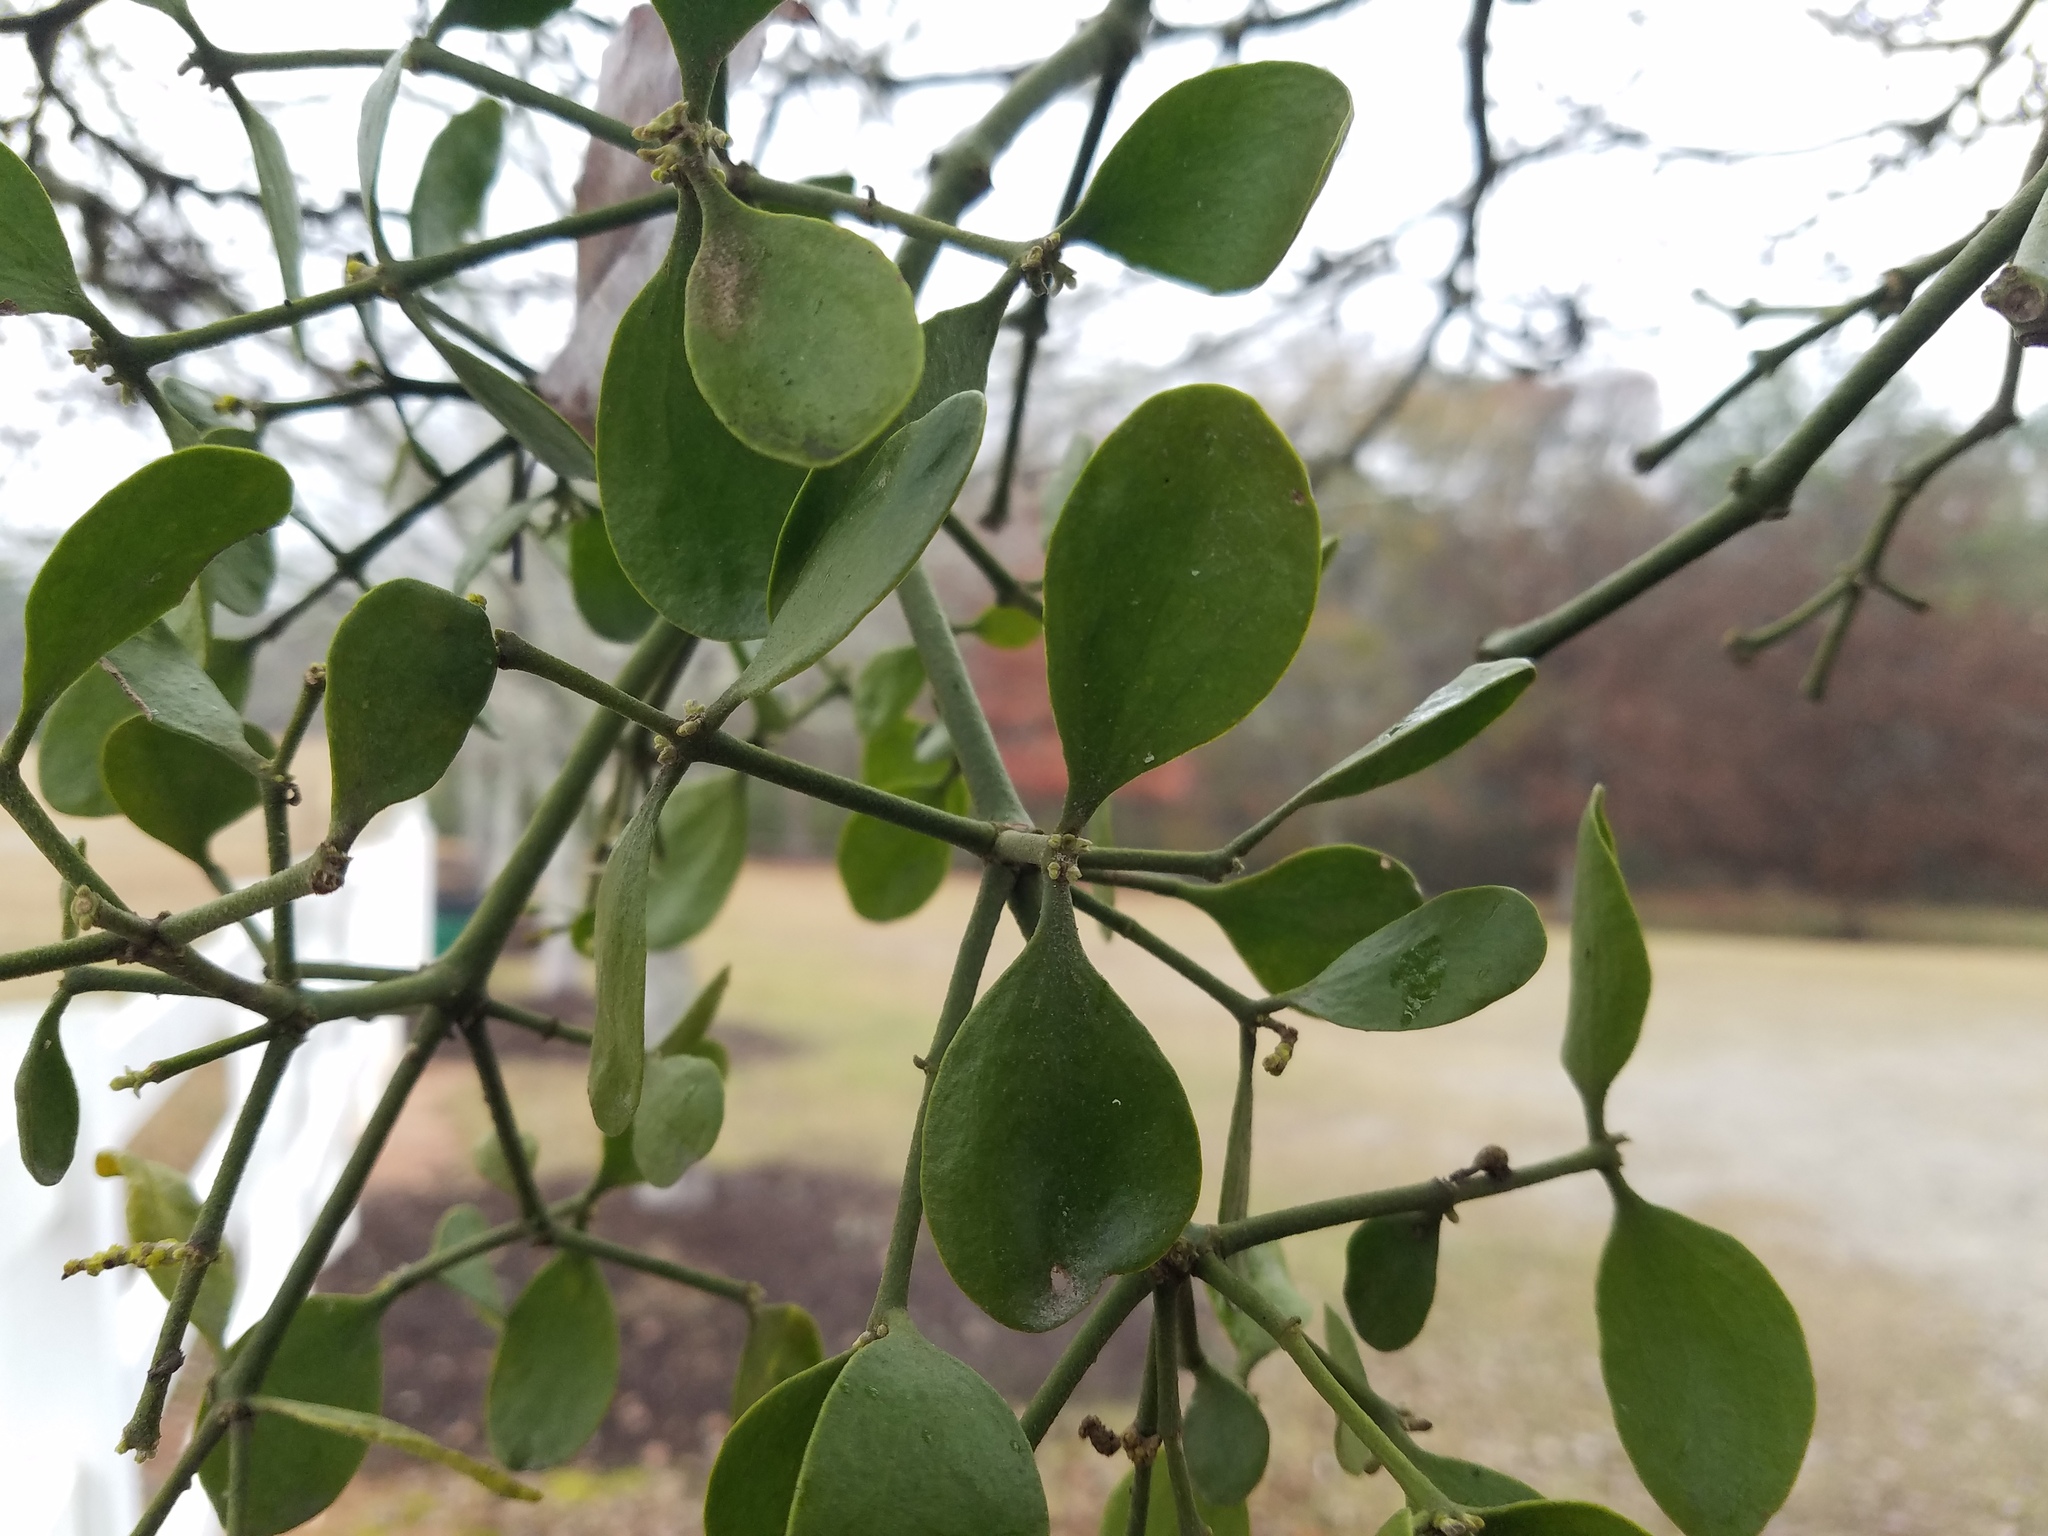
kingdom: Plantae
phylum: Tracheophyta
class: Magnoliopsida
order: Santalales
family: Viscaceae
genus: Phoradendron
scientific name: Phoradendron leucarpum
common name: Pacific mistletoe
